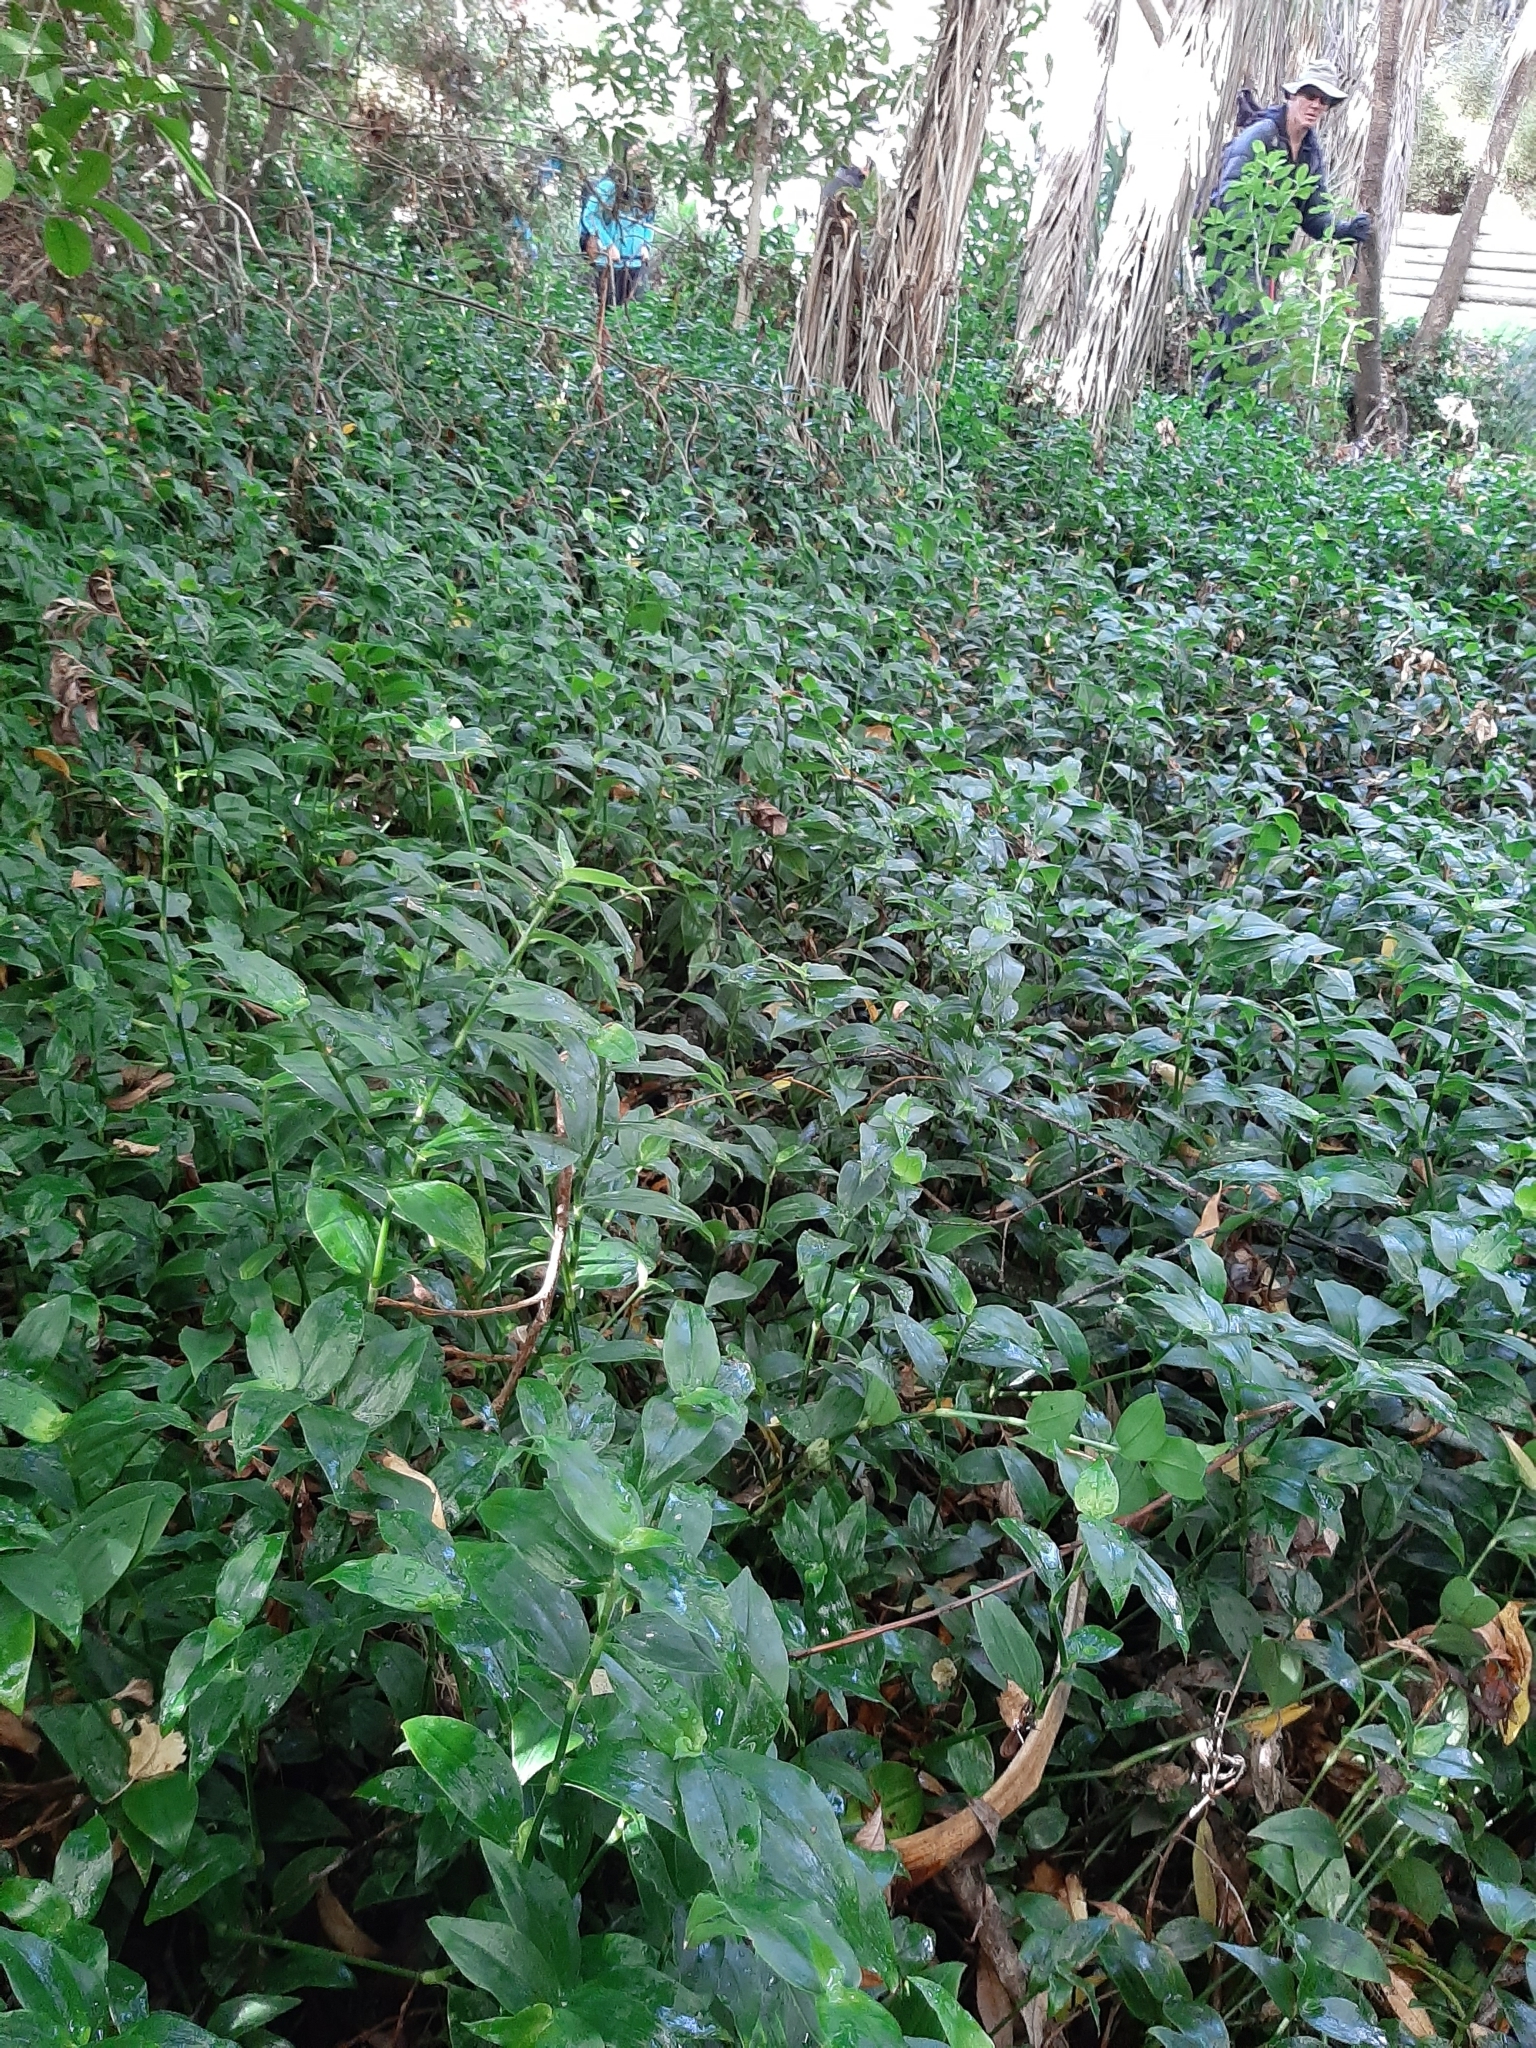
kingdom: Plantae
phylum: Tracheophyta
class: Liliopsida
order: Commelinales
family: Commelinaceae
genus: Tradescantia
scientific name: Tradescantia fluminensis
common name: Wandering-jew
